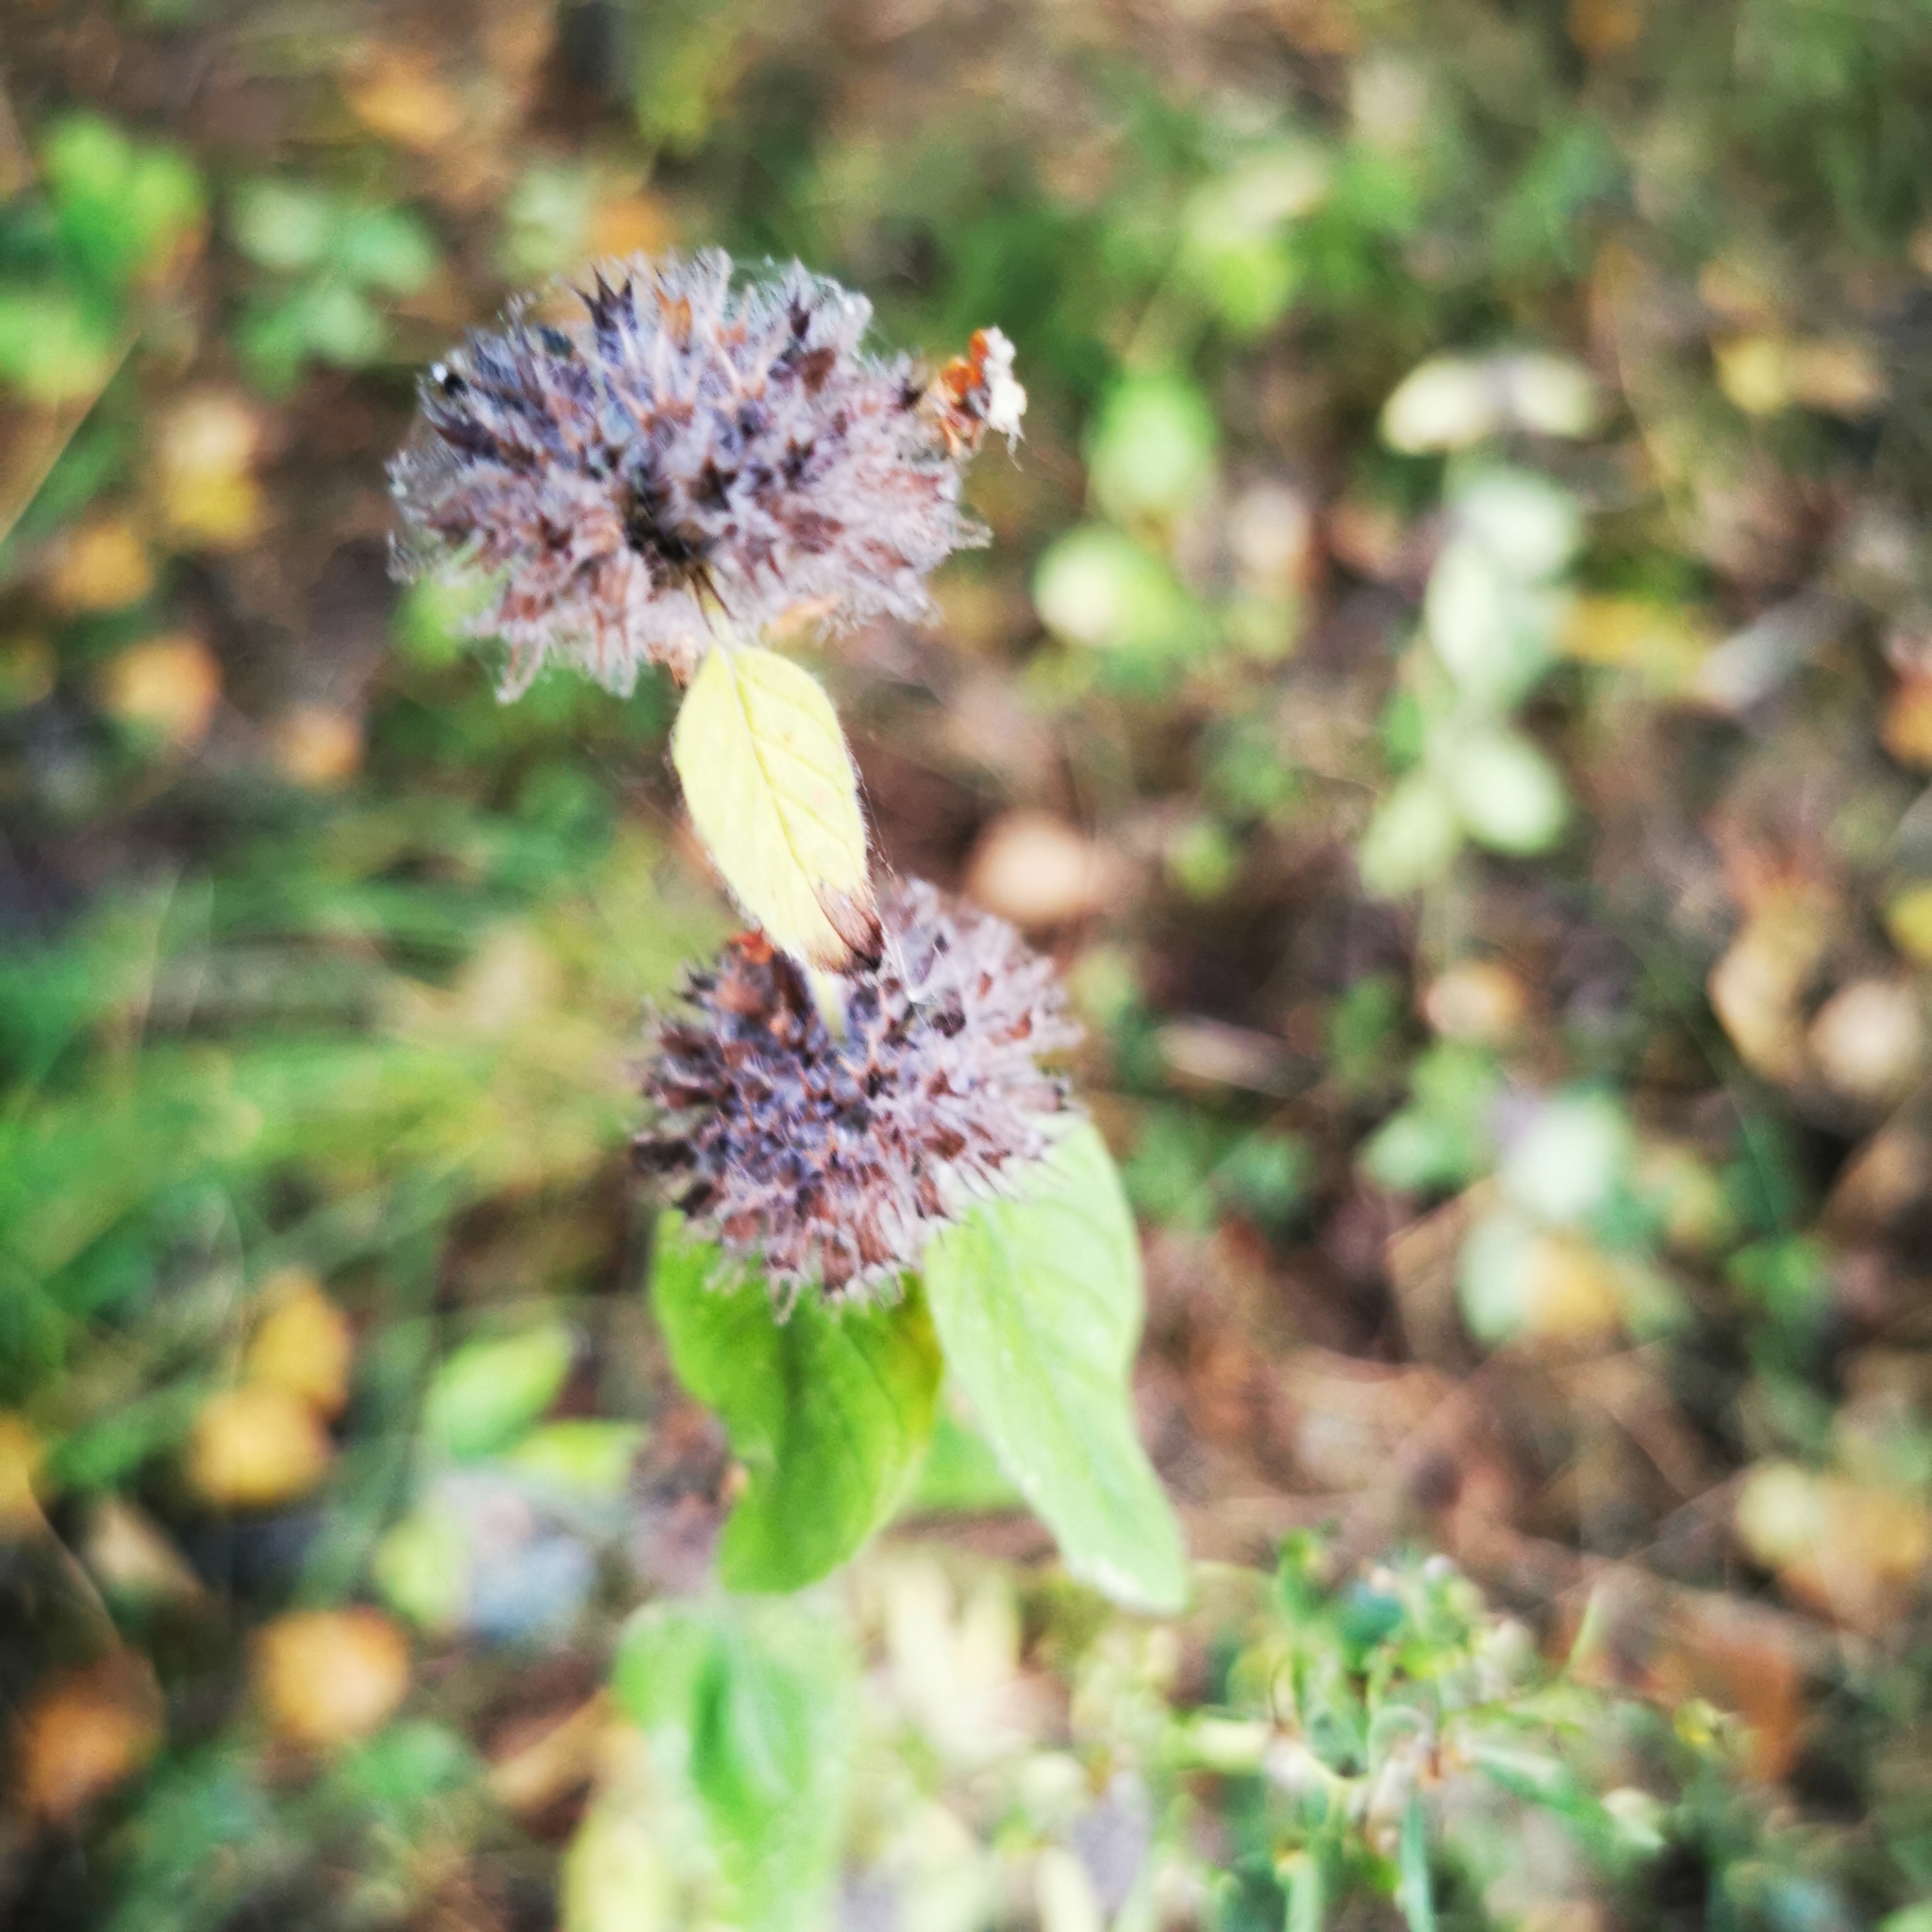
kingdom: Plantae
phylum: Tracheophyta
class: Magnoliopsida
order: Lamiales
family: Lamiaceae
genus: Clinopodium
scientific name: Clinopodium vulgare
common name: Wild basil
